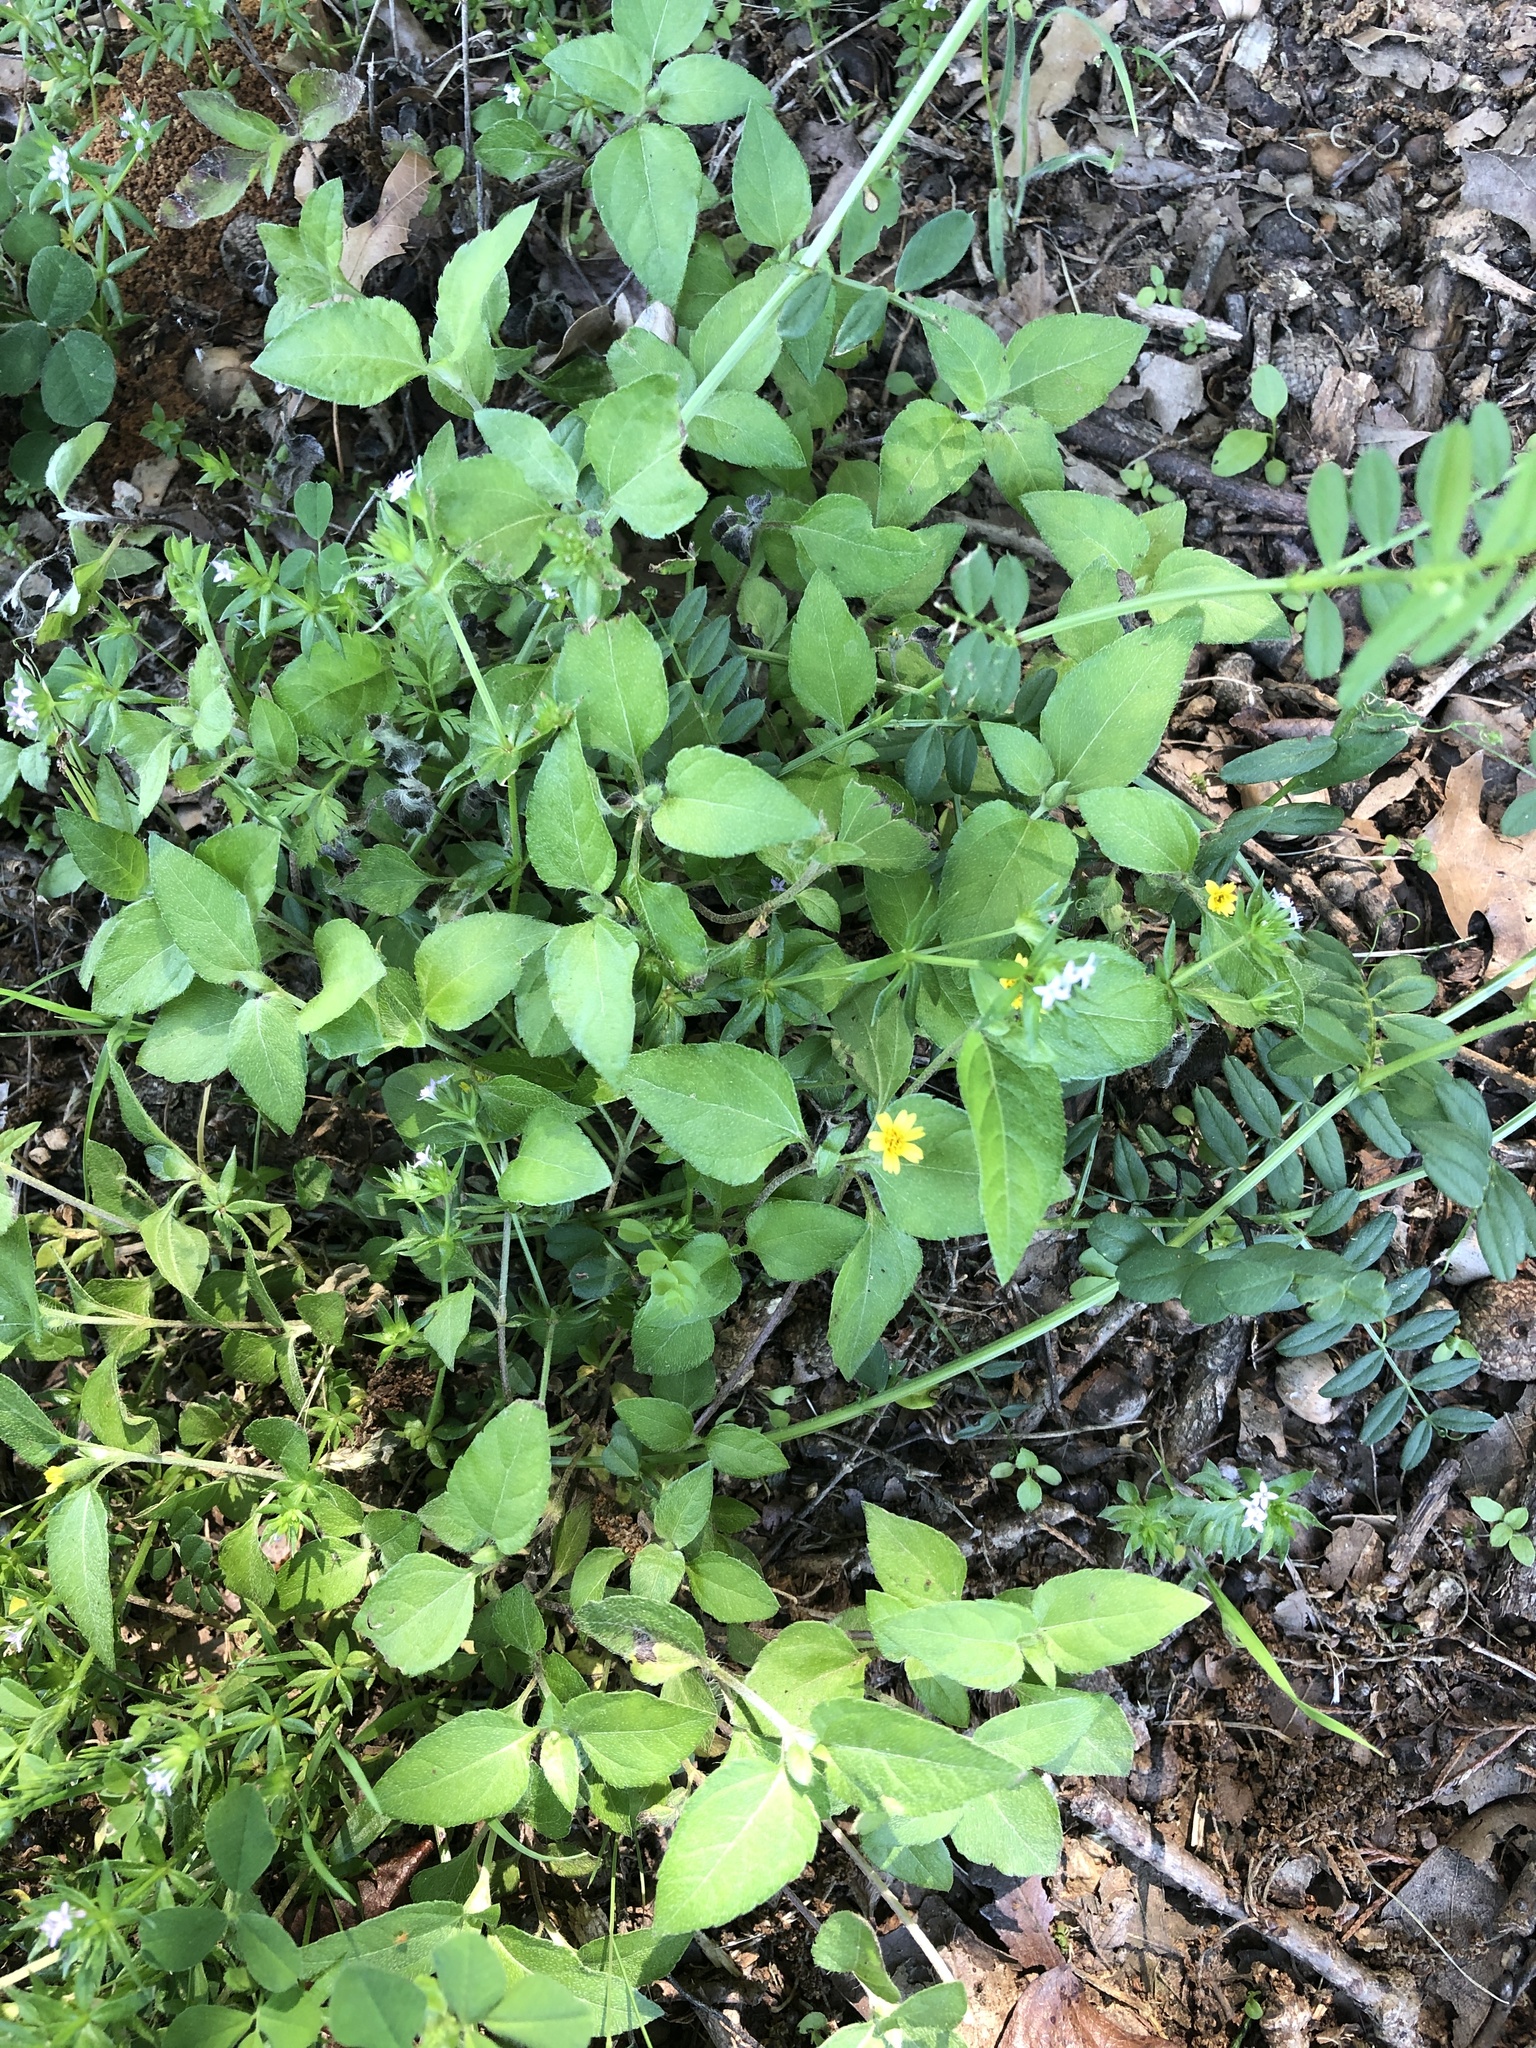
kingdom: Plantae
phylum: Tracheophyta
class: Magnoliopsida
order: Asterales
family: Asteraceae
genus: Calyptocarpus
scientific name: Calyptocarpus vialis
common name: Straggler daisy
